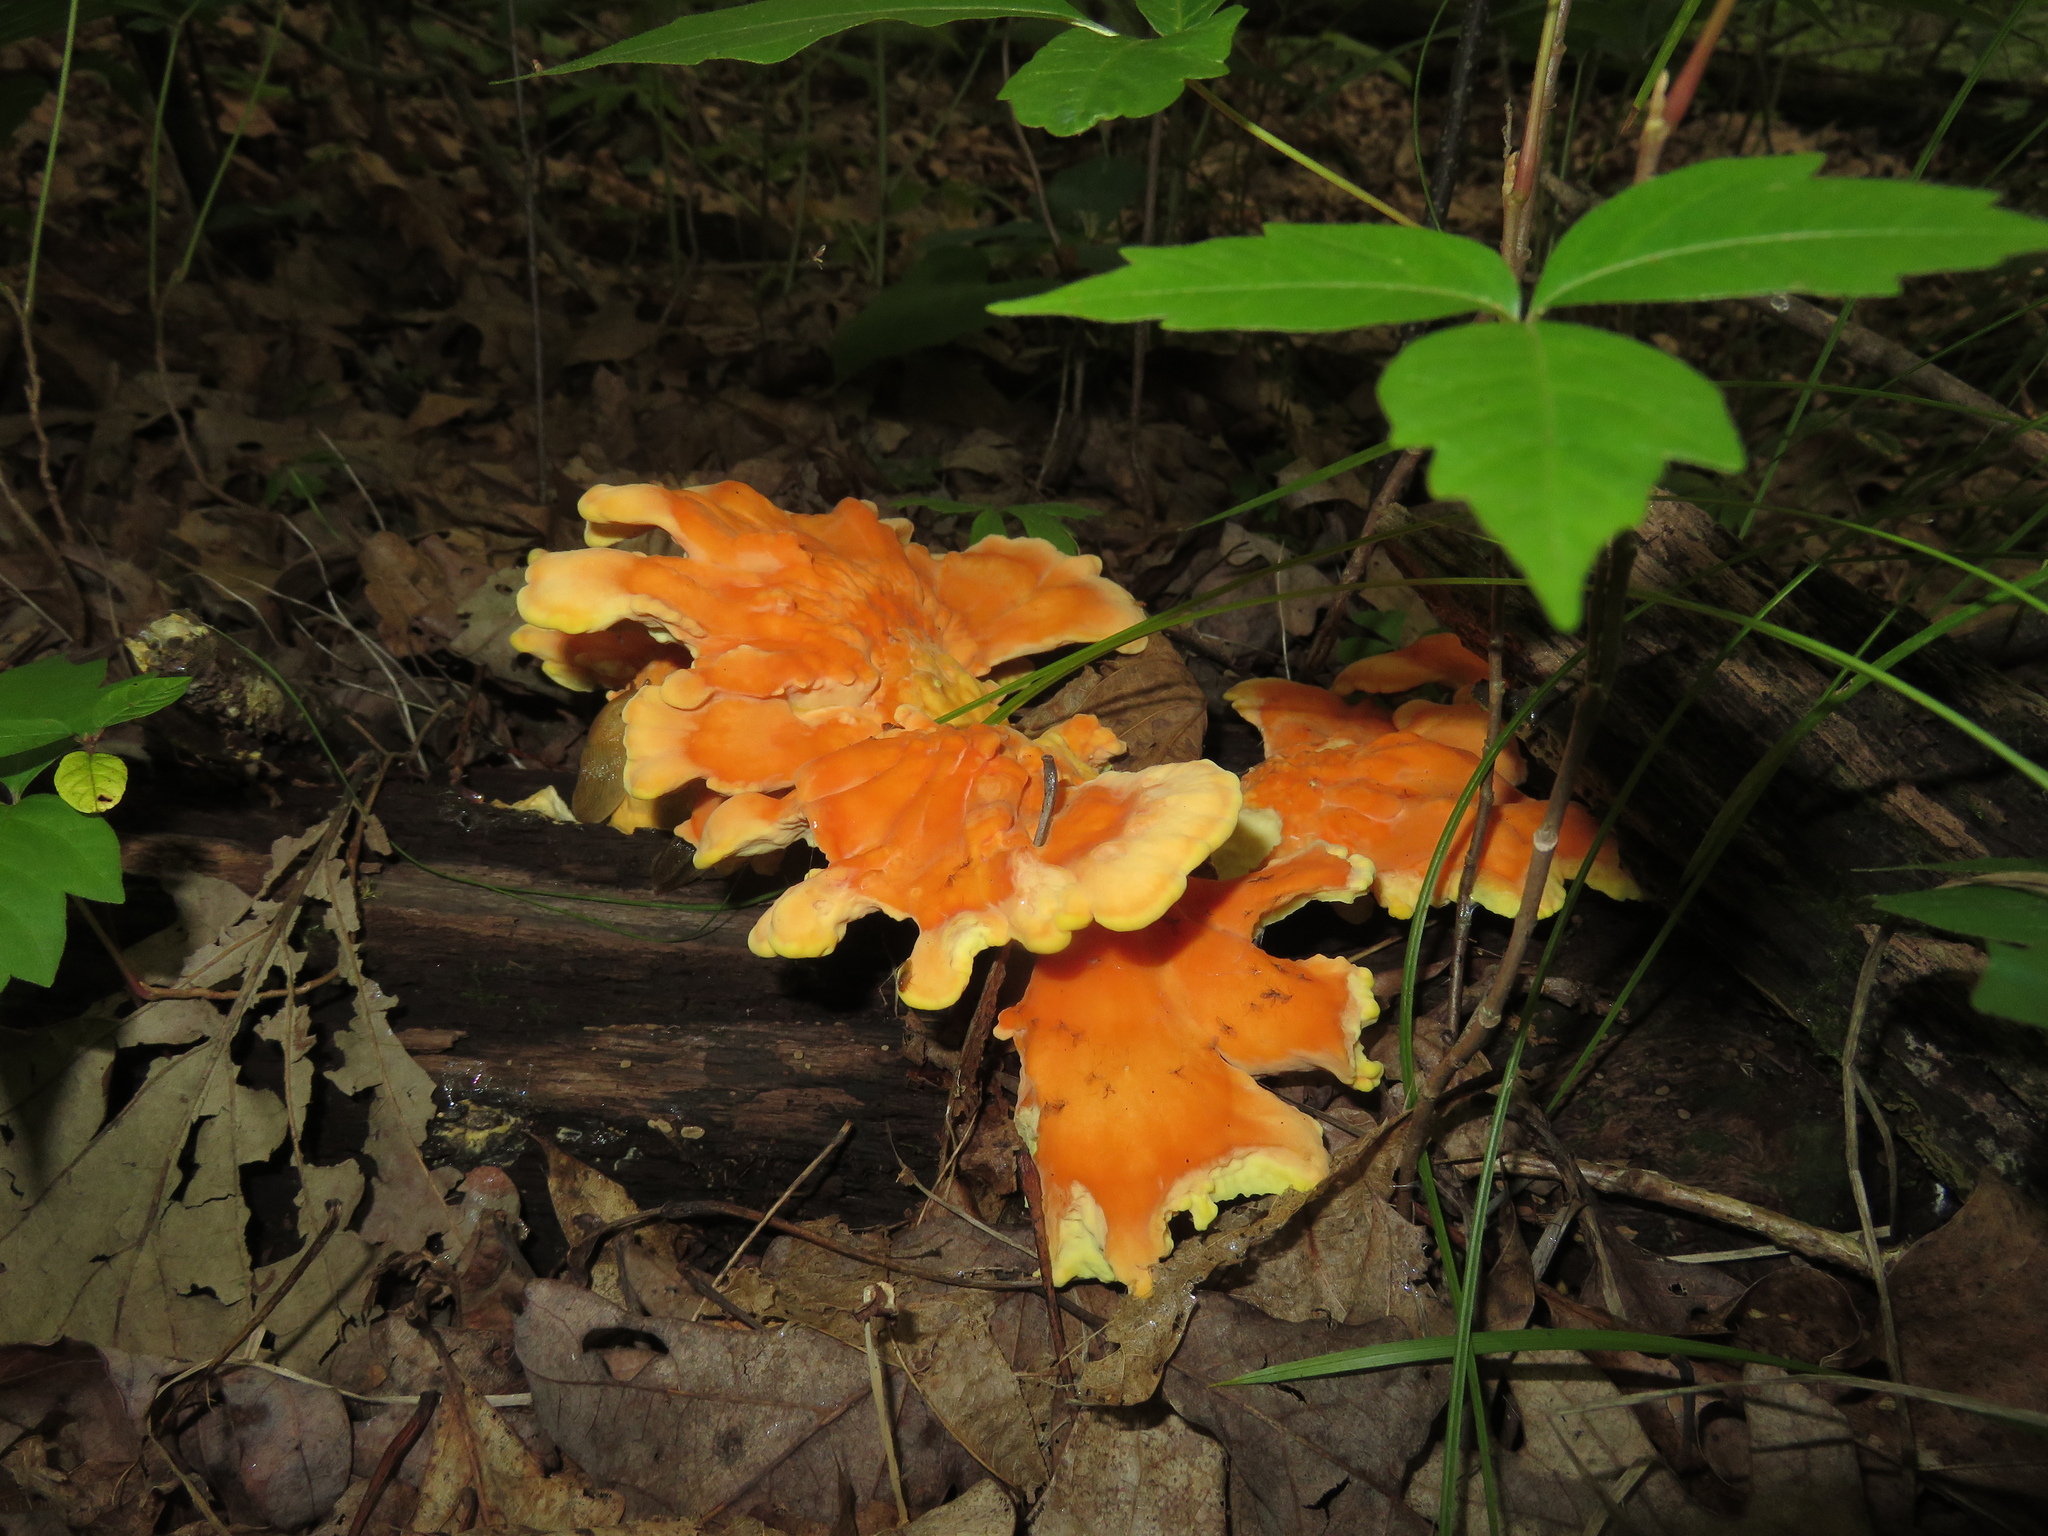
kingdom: Fungi
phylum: Basidiomycota
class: Agaricomycetes
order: Polyporales
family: Laetiporaceae
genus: Laetiporus
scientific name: Laetiporus sulphureus
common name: Chicken of the woods
